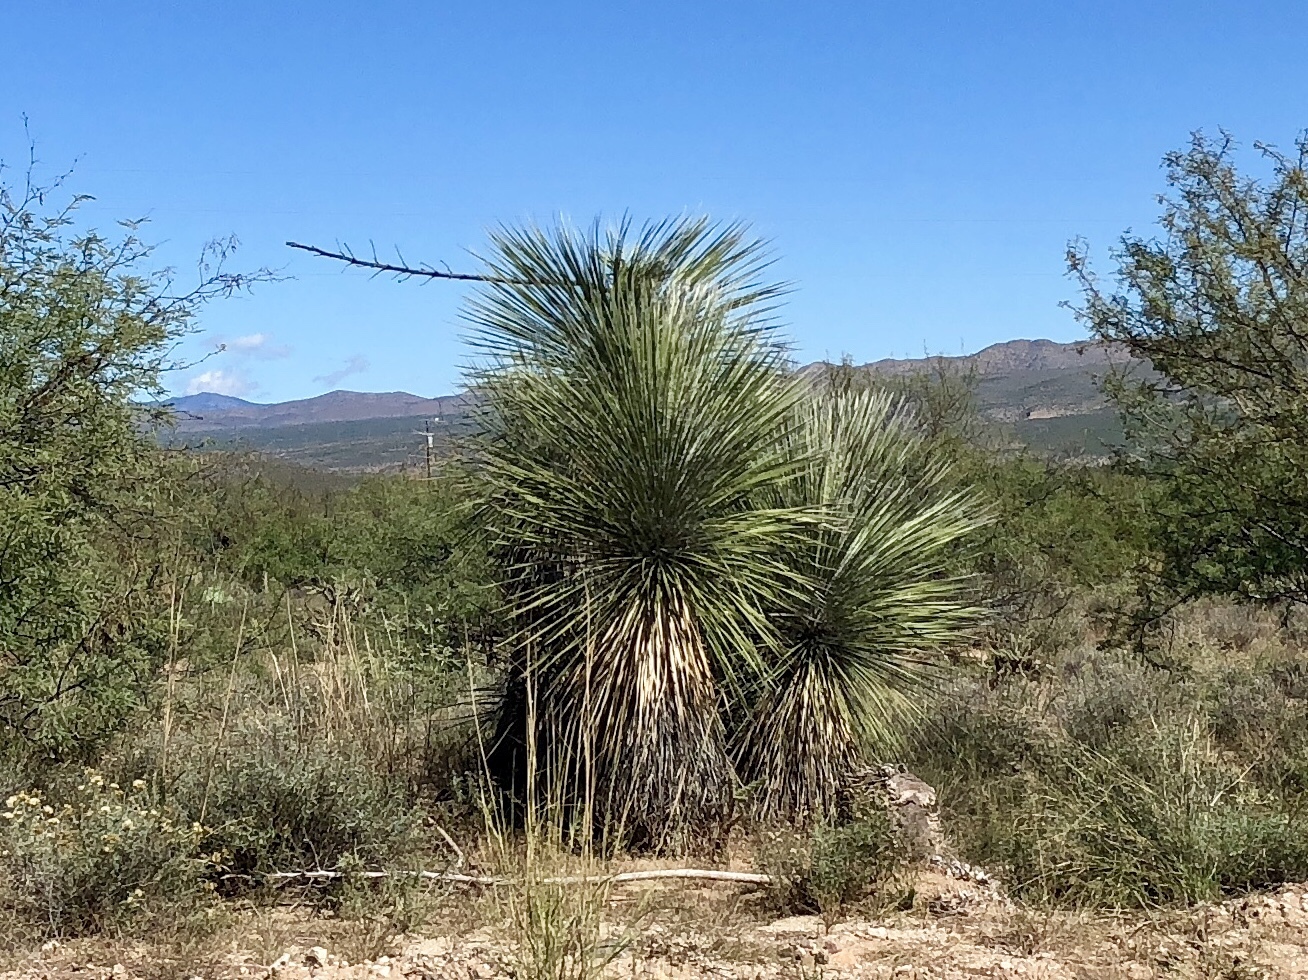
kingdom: Plantae
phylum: Tracheophyta
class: Liliopsida
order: Asparagales
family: Asparagaceae
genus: Yucca
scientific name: Yucca elata
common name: Palmella
